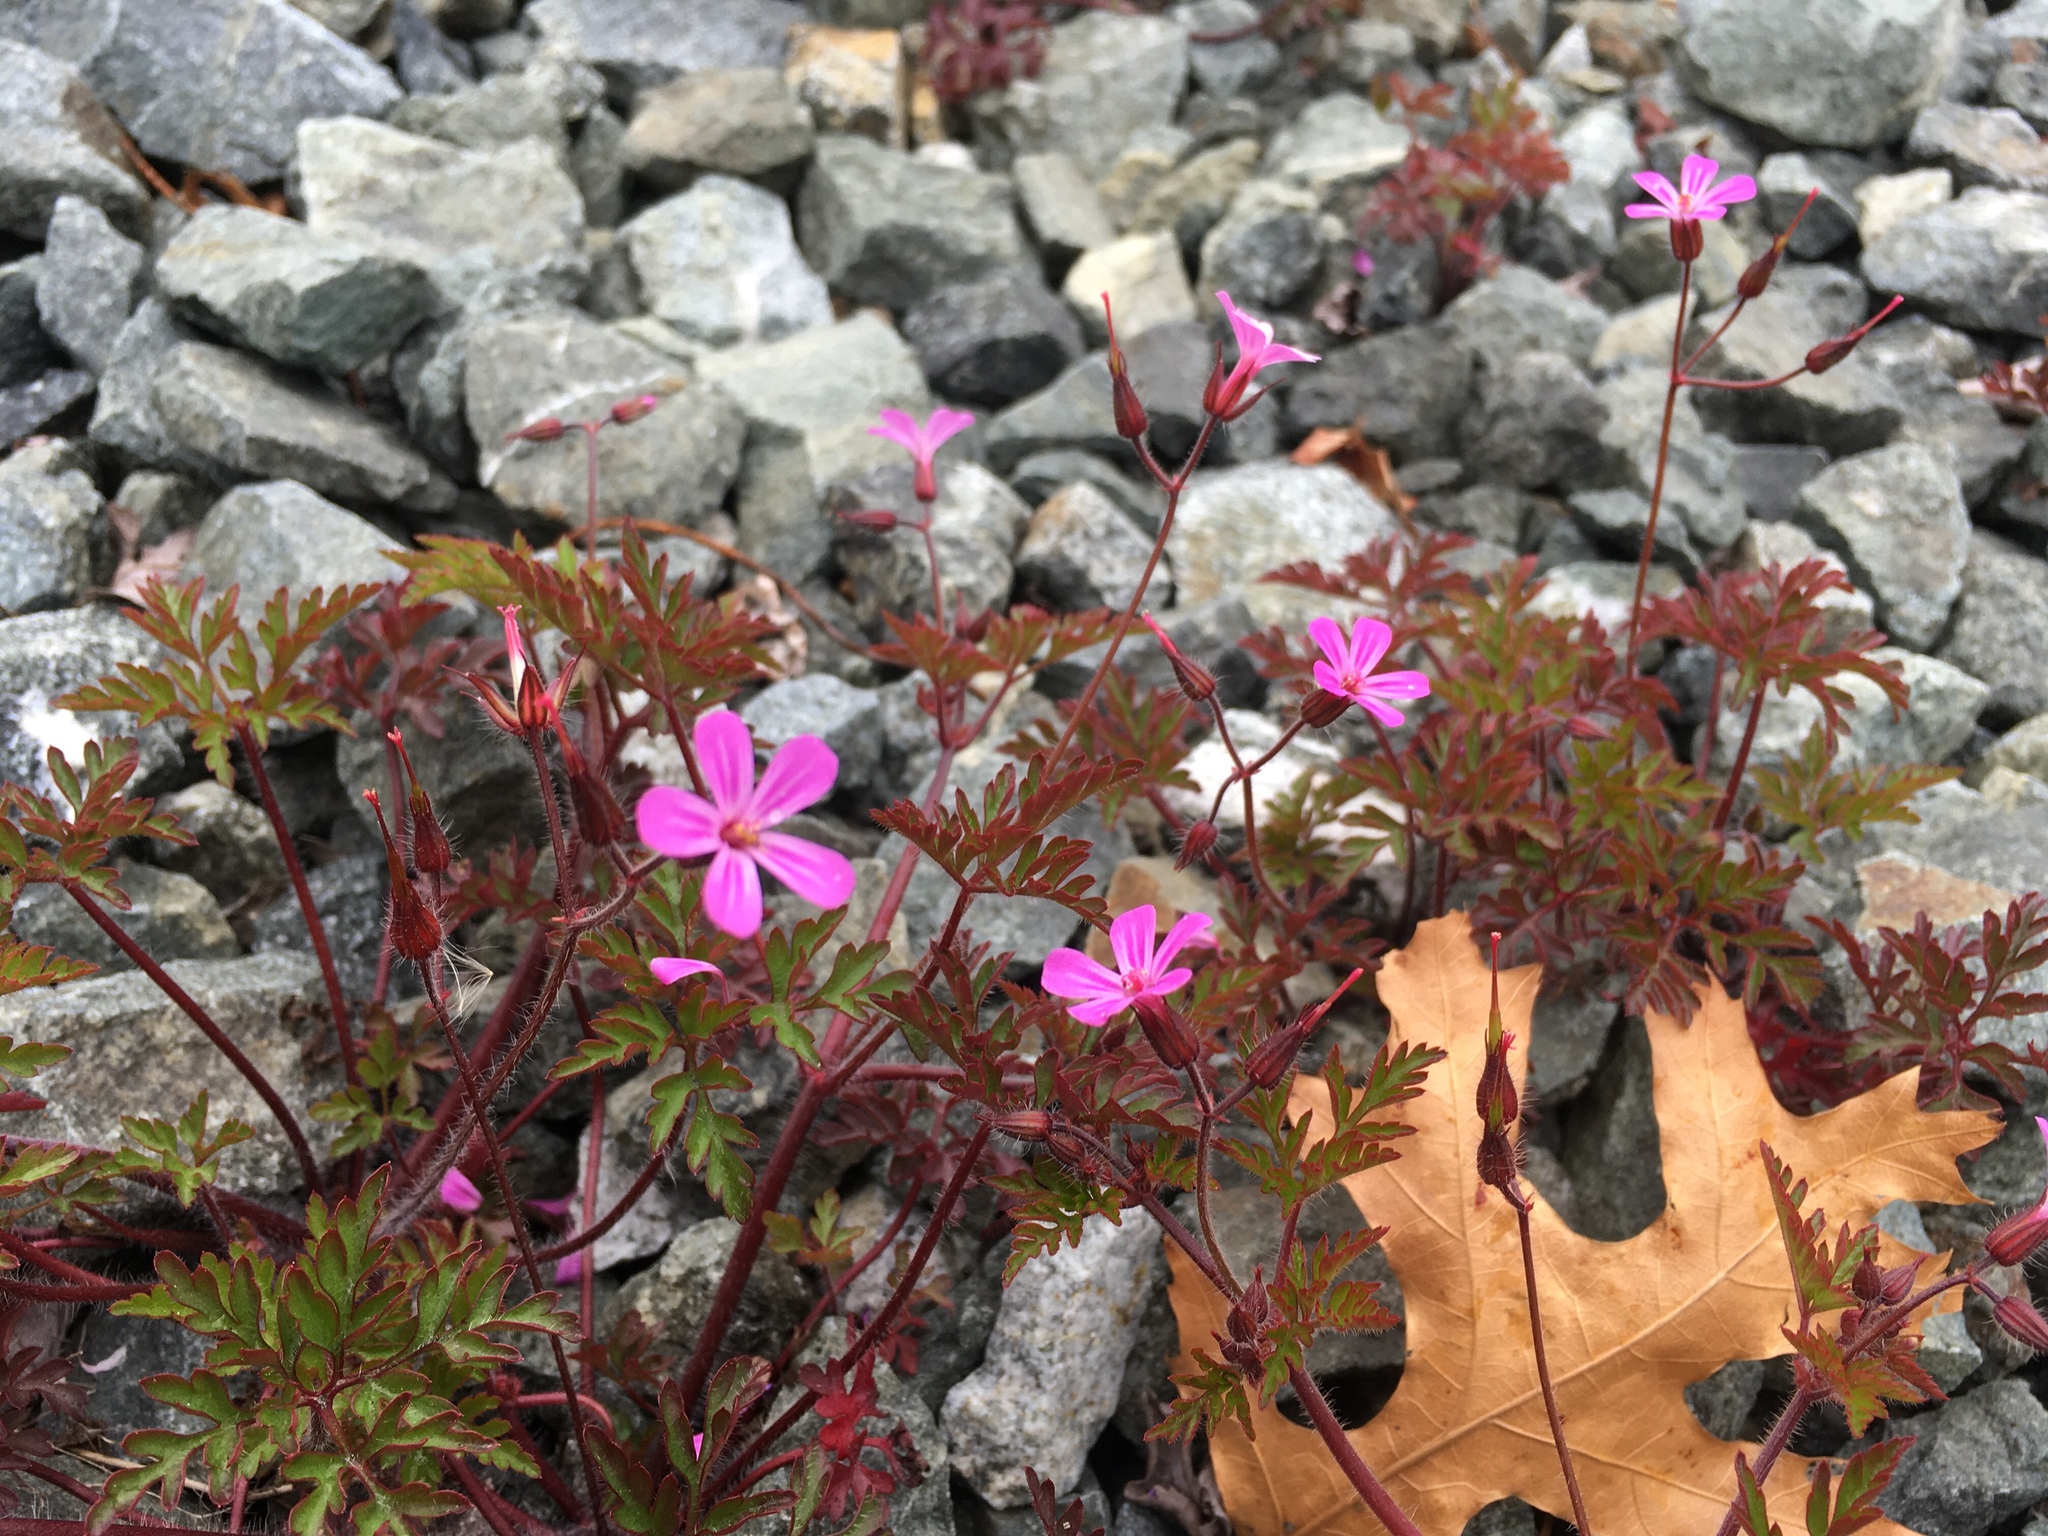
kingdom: Plantae
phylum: Tracheophyta
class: Magnoliopsida
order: Geraniales
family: Geraniaceae
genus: Geranium
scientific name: Geranium robertianum
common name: Herb-robert
